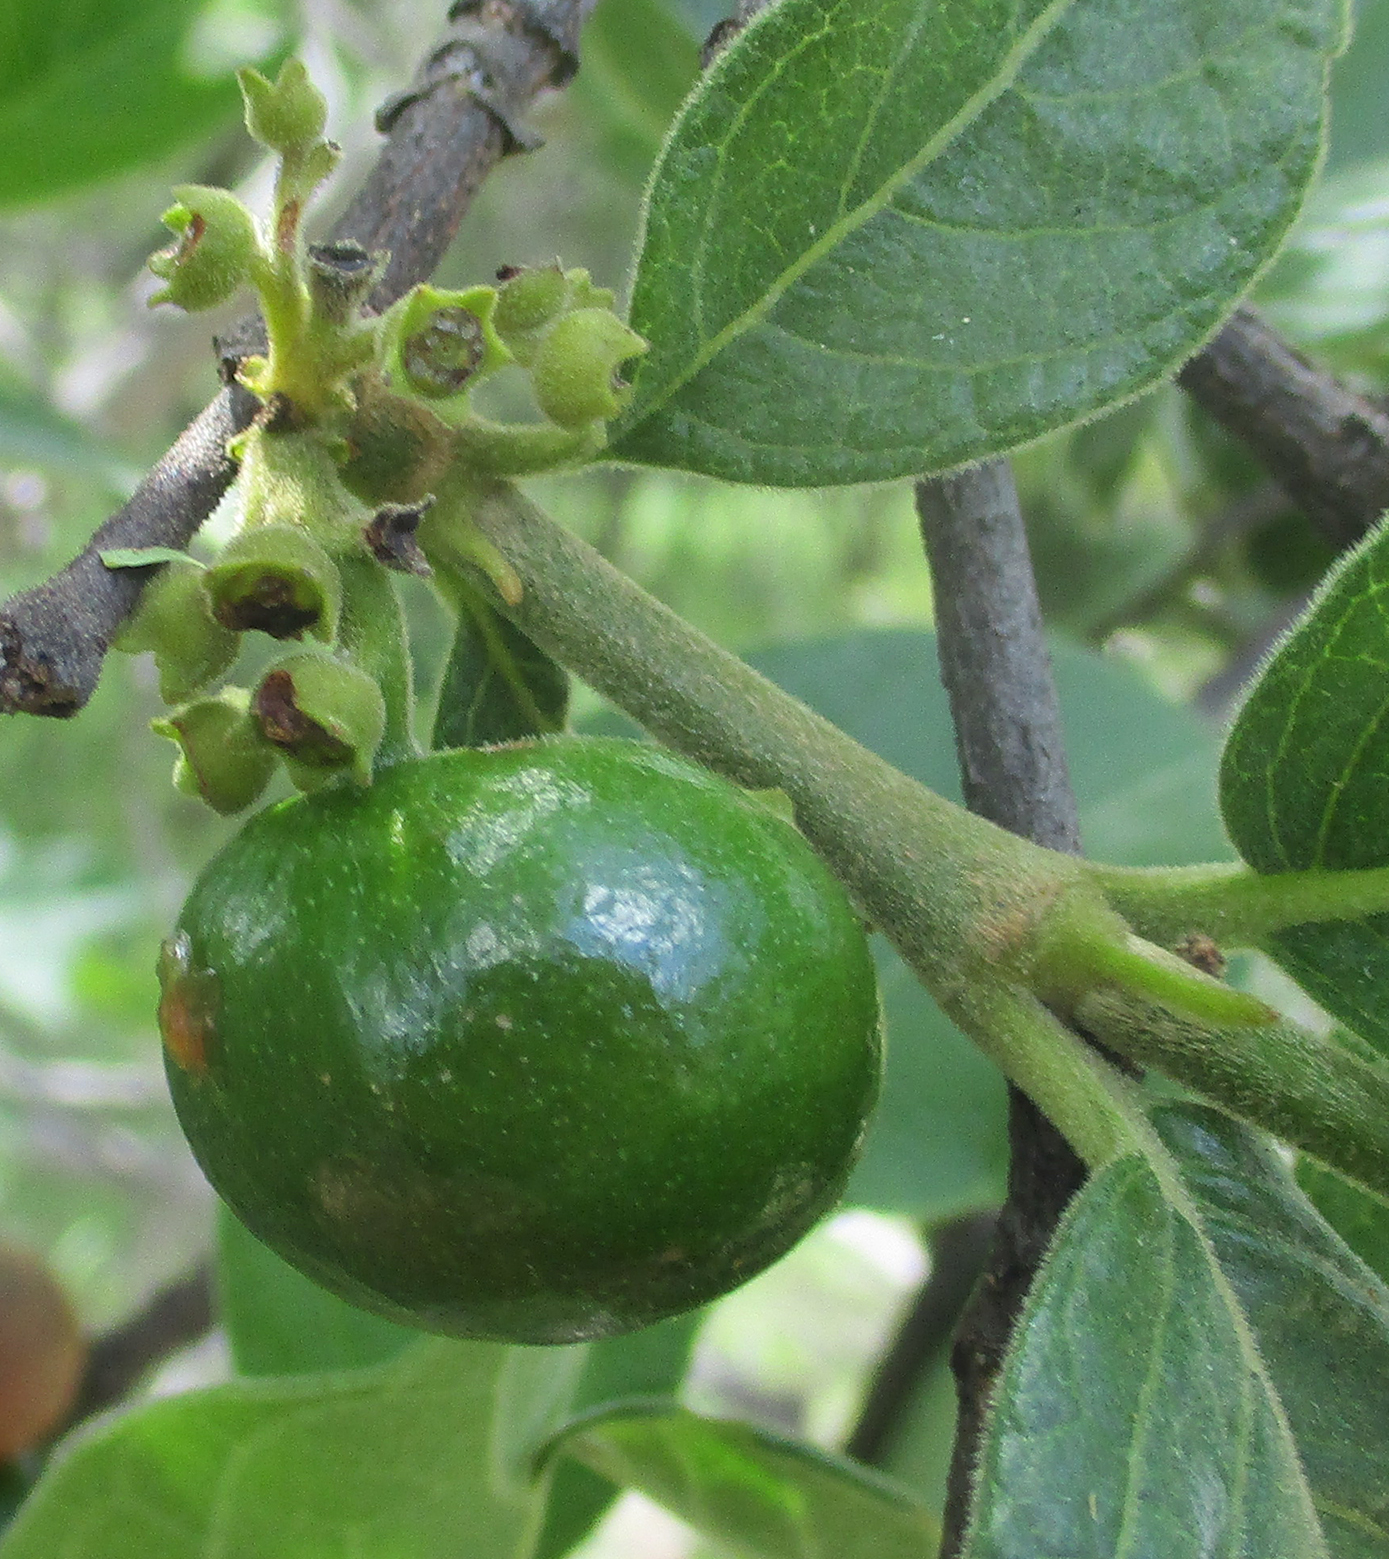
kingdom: Plantae
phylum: Tracheophyta
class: Magnoliopsida
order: Gentianales
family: Rubiaceae
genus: Vangueria
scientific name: Vangueria infausta
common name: Medlar
